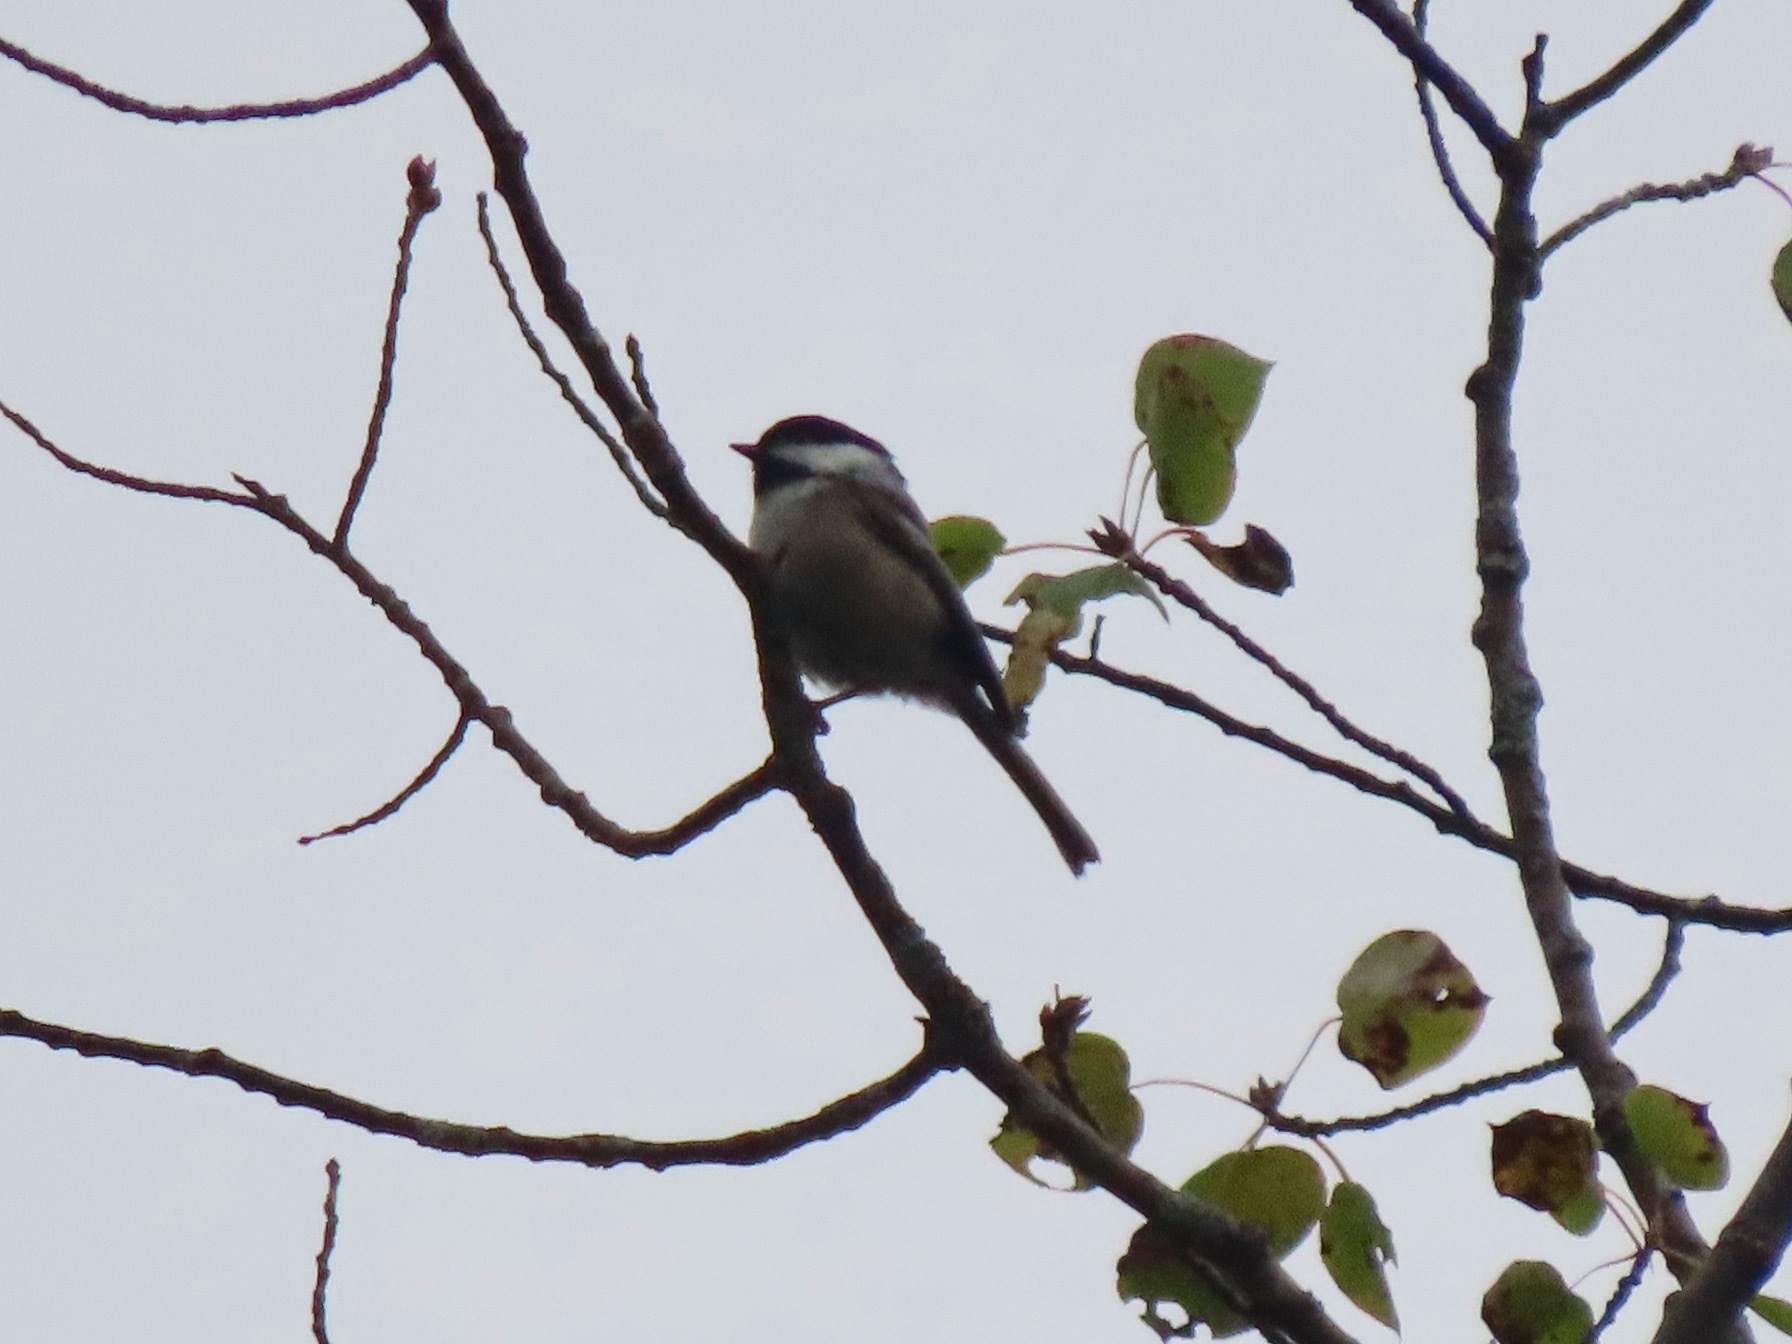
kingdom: Animalia
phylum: Chordata
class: Aves
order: Passeriformes
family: Paridae
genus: Poecile
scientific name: Poecile atricapillus
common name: Black-capped chickadee
